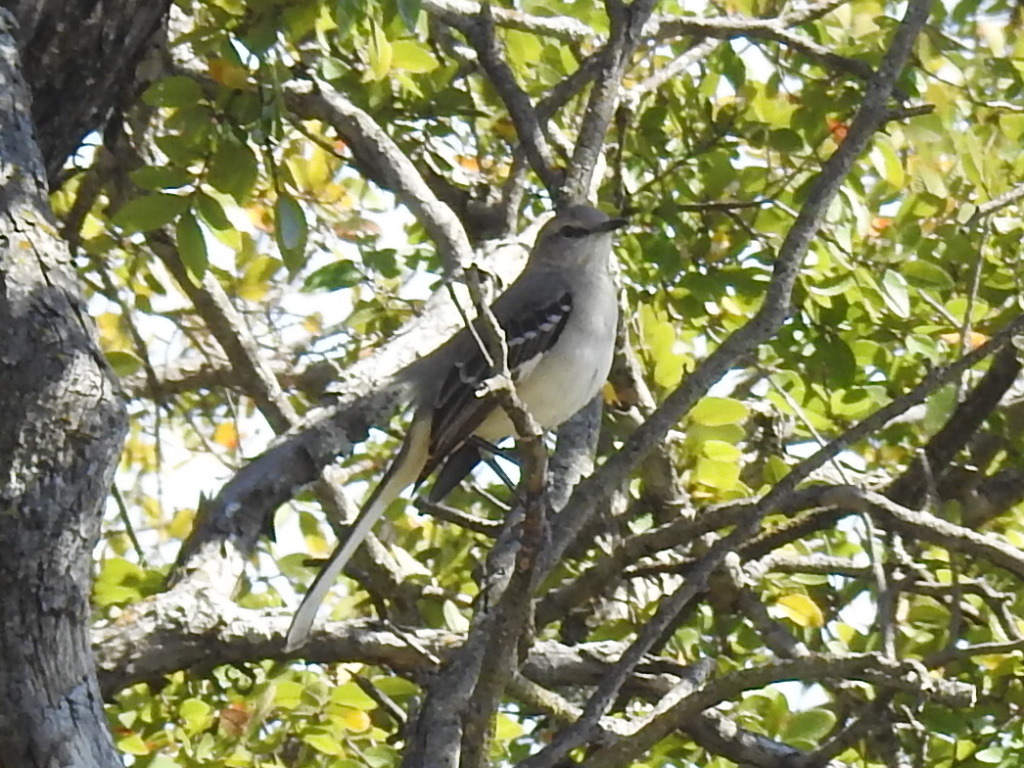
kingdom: Animalia
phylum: Chordata
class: Aves
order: Passeriformes
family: Mimidae
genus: Mimus
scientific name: Mimus polyglottos
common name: Northern mockingbird
